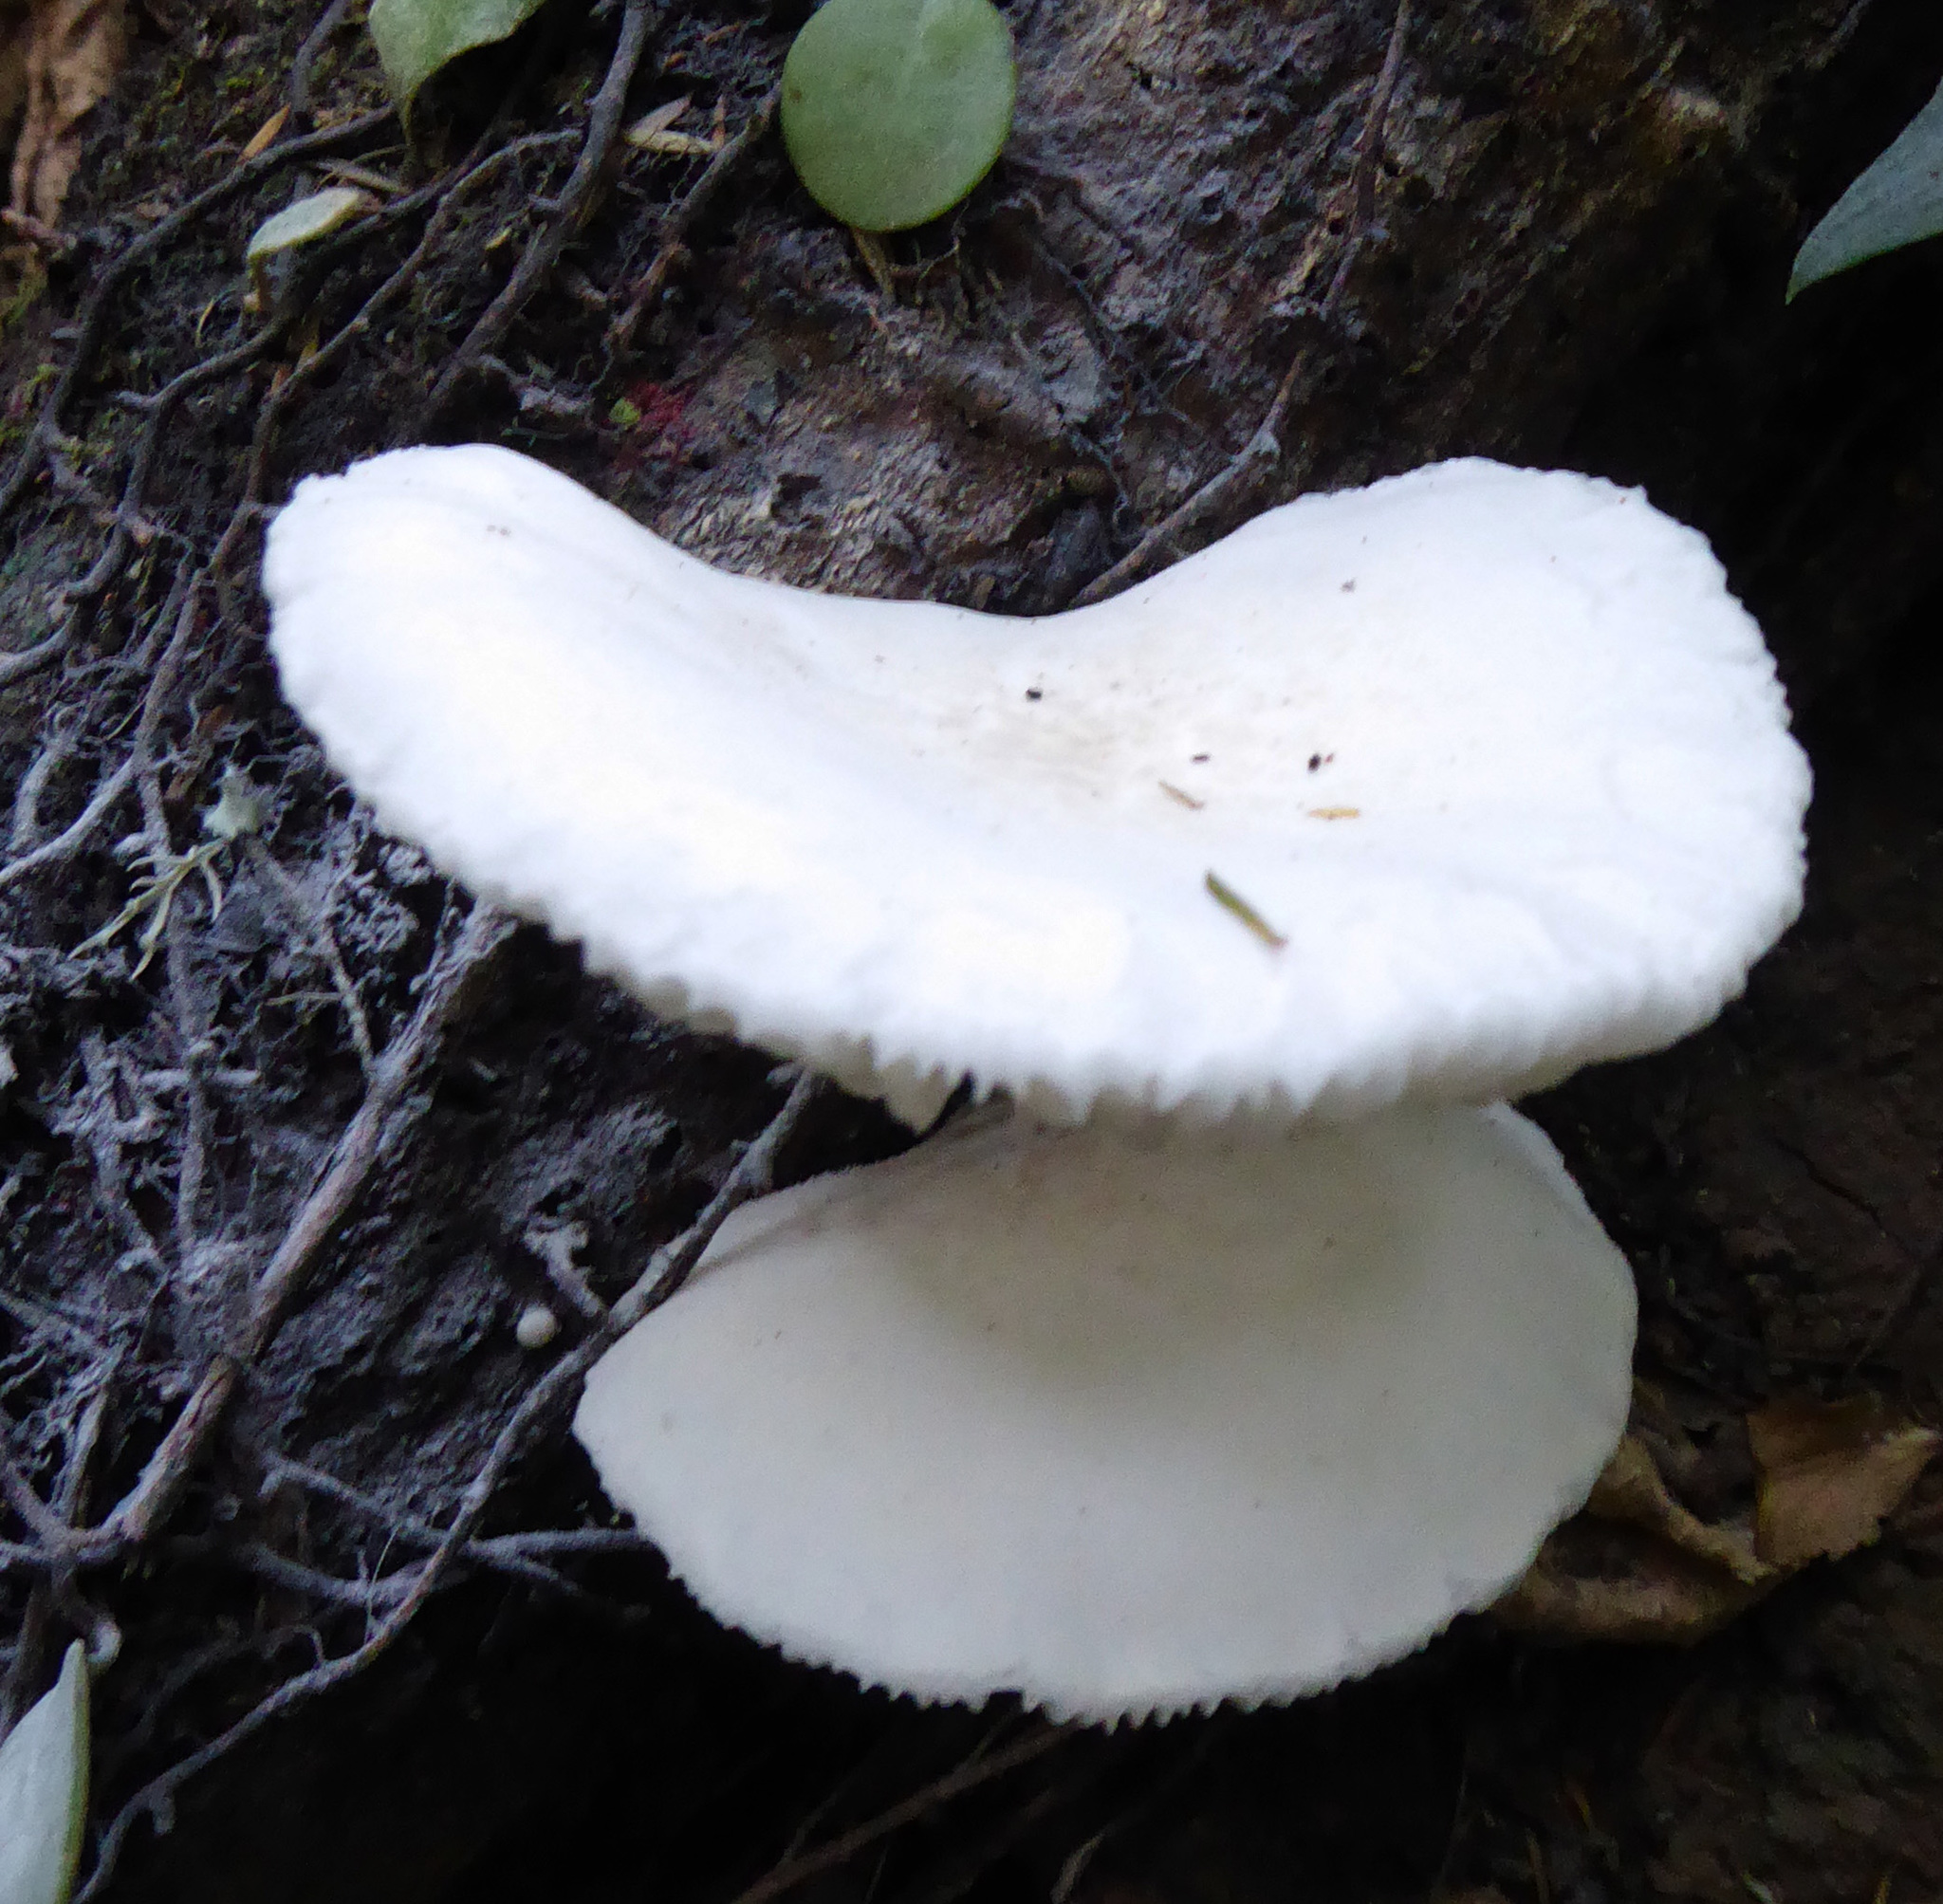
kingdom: Fungi
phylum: Basidiomycota
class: Agaricomycetes
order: Agaricales
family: Physalacriaceae
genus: Oudemansiella
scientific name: Oudemansiella australis
